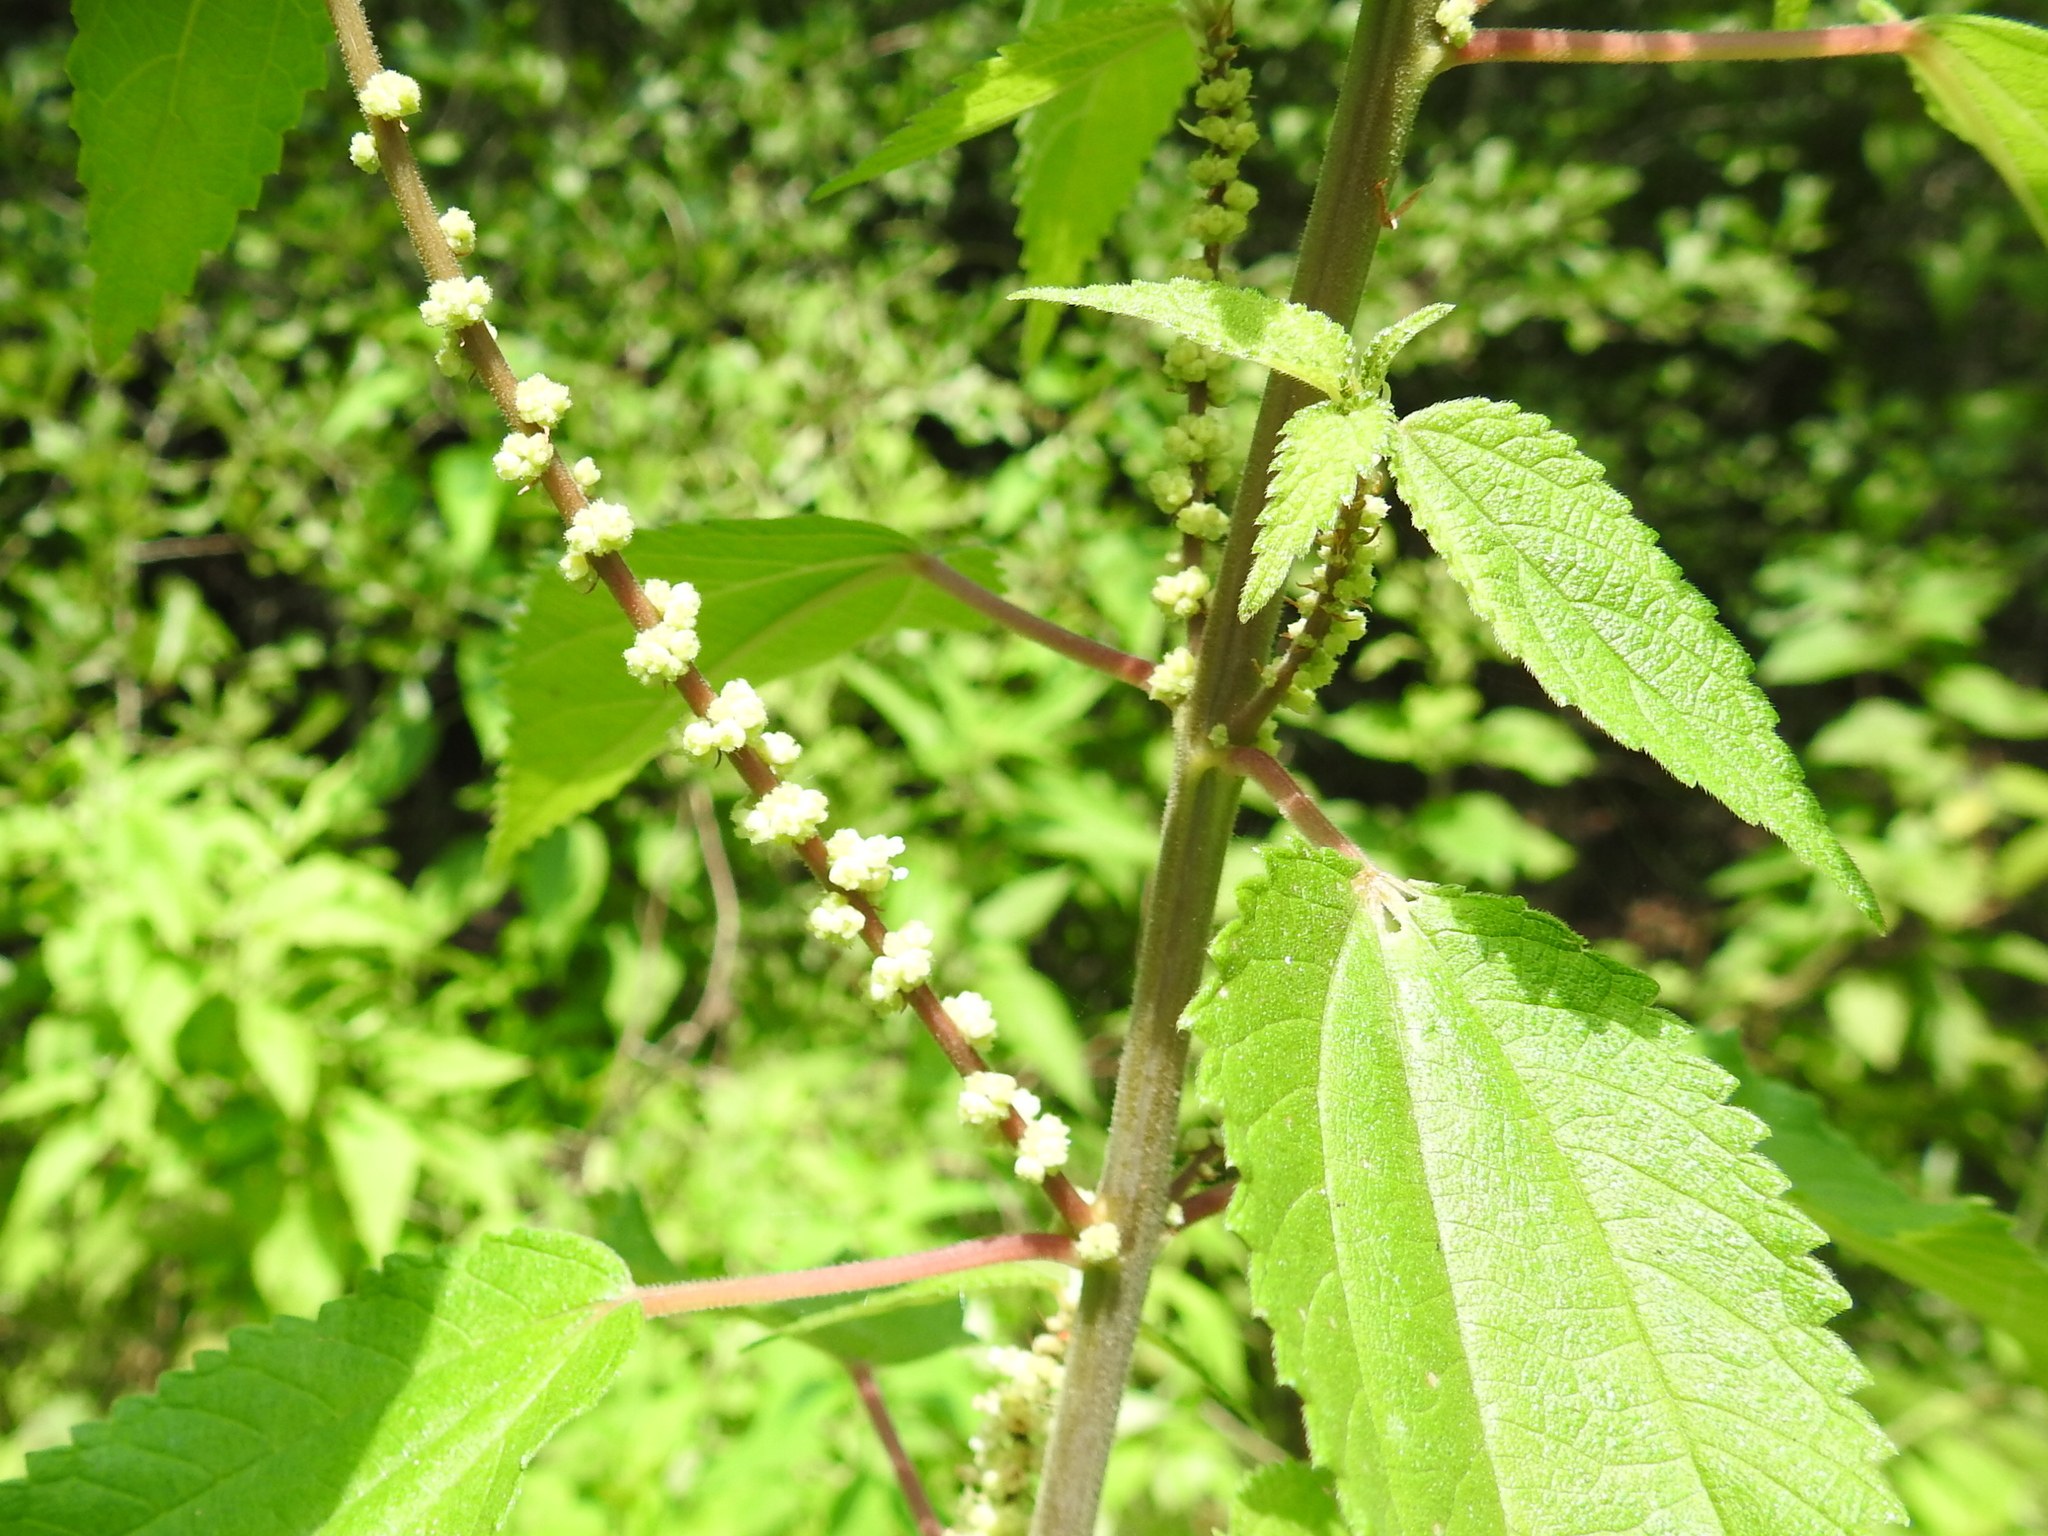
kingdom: Plantae
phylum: Tracheophyta
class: Magnoliopsida
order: Rosales
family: Urticaceae
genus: Boehmeria
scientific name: Boehmeria cylindrica
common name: Bog-hemp
